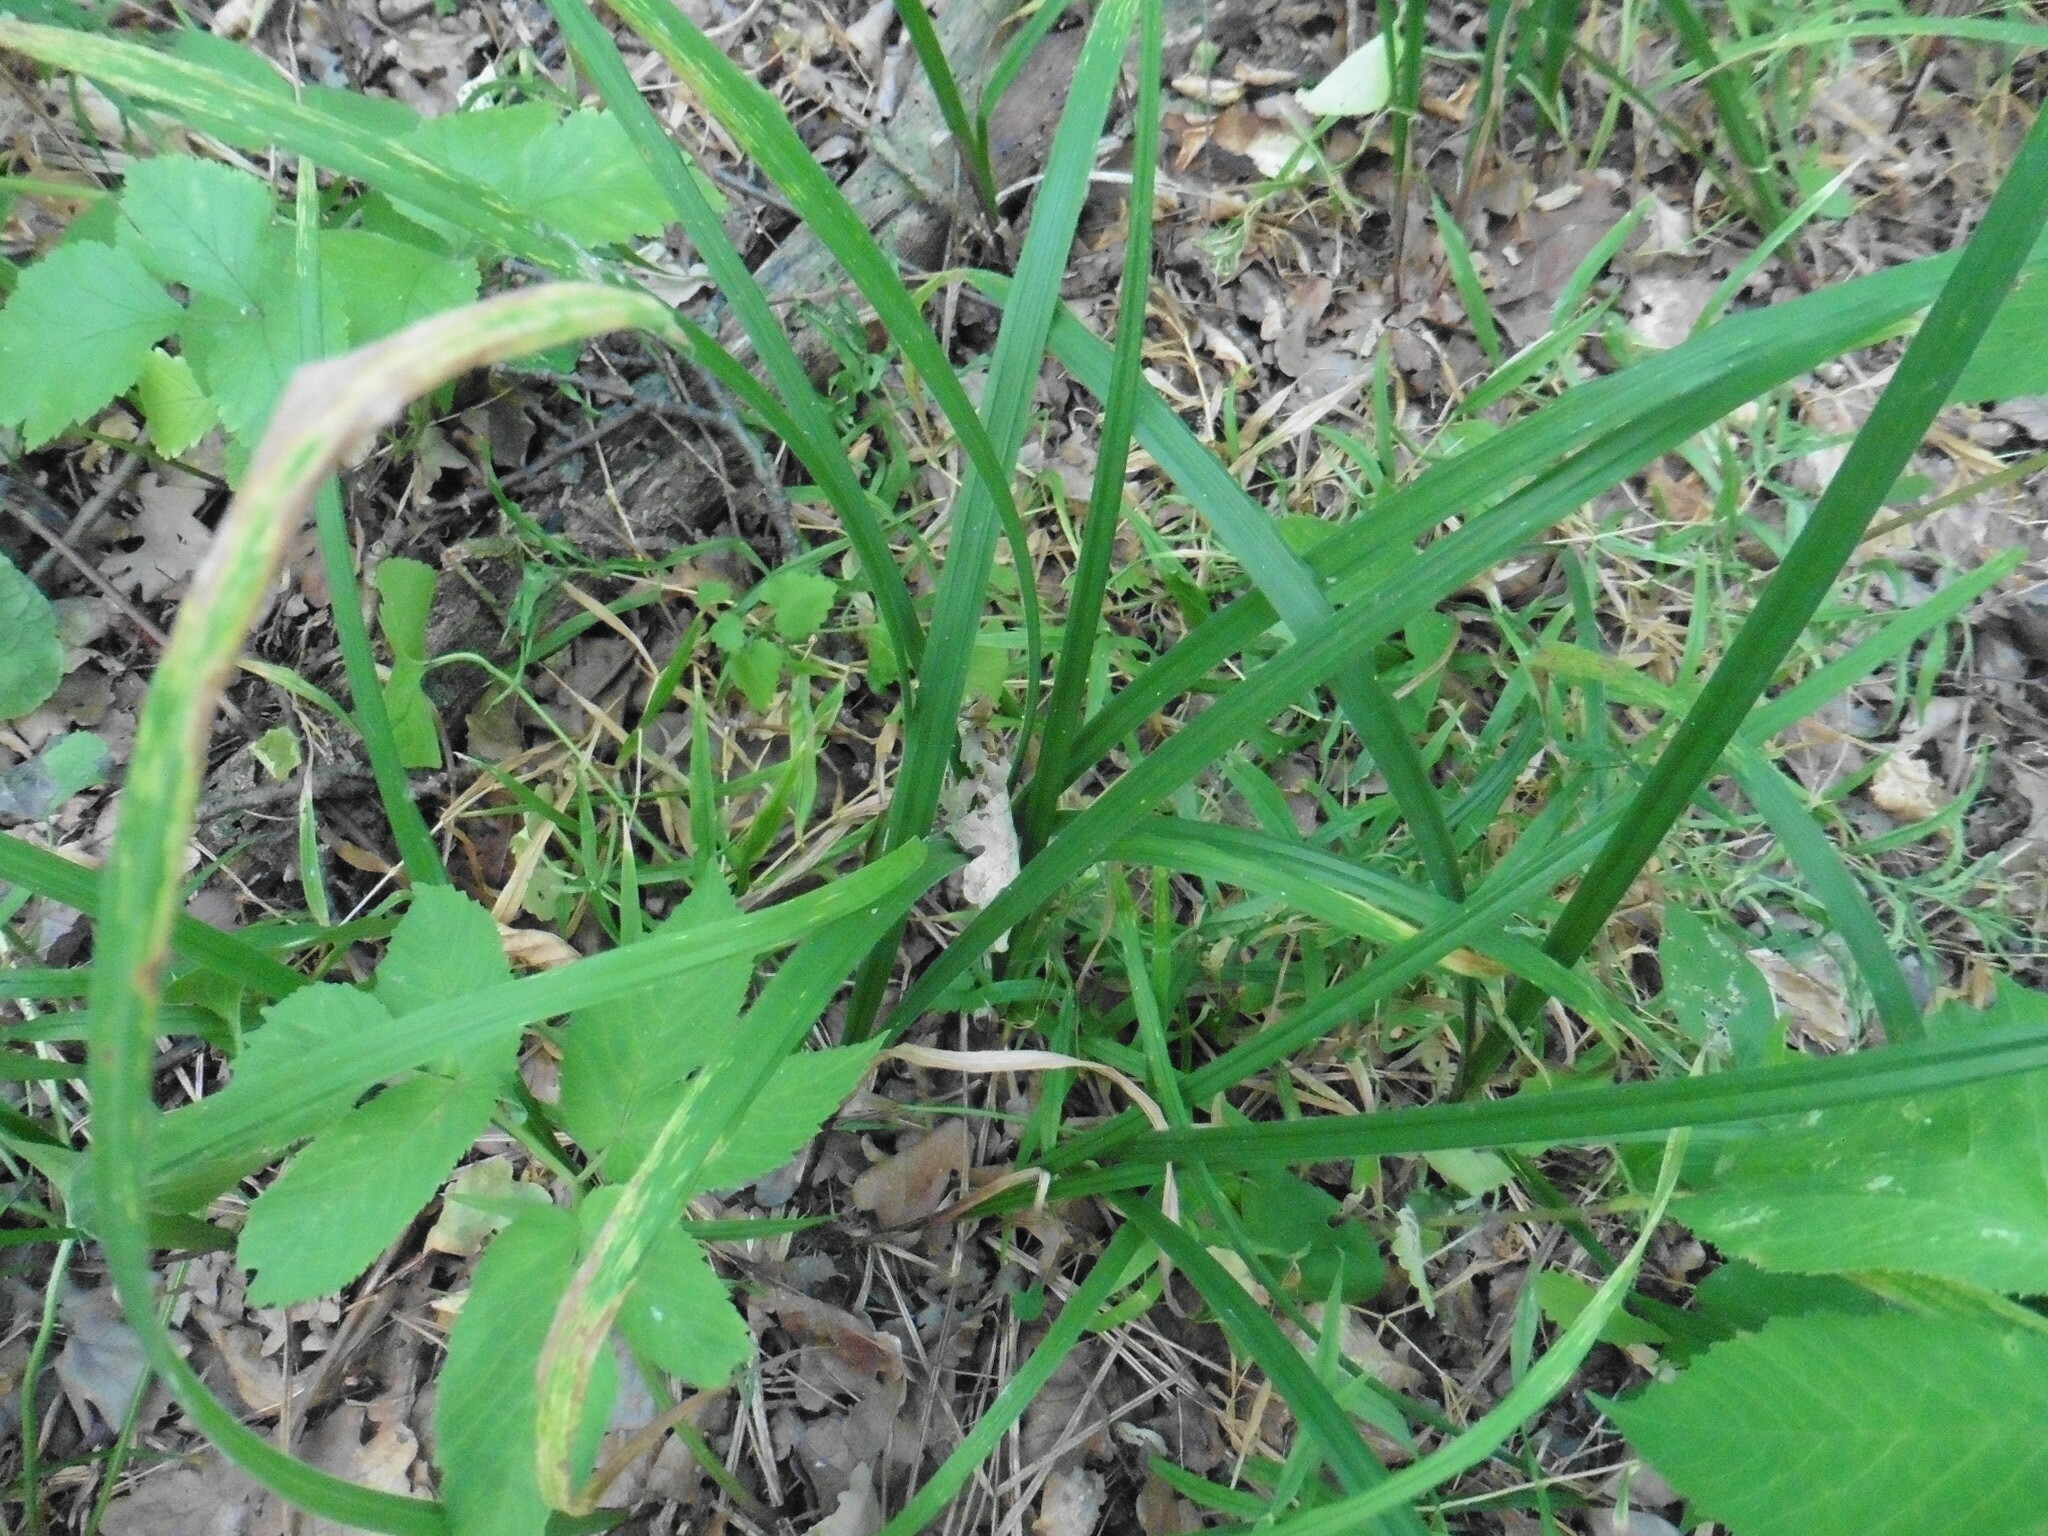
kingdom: Plantae
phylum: Tracheophyta
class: Liliopsida
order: Poales
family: Cyperaceae
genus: Carex
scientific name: Carex pilosa
